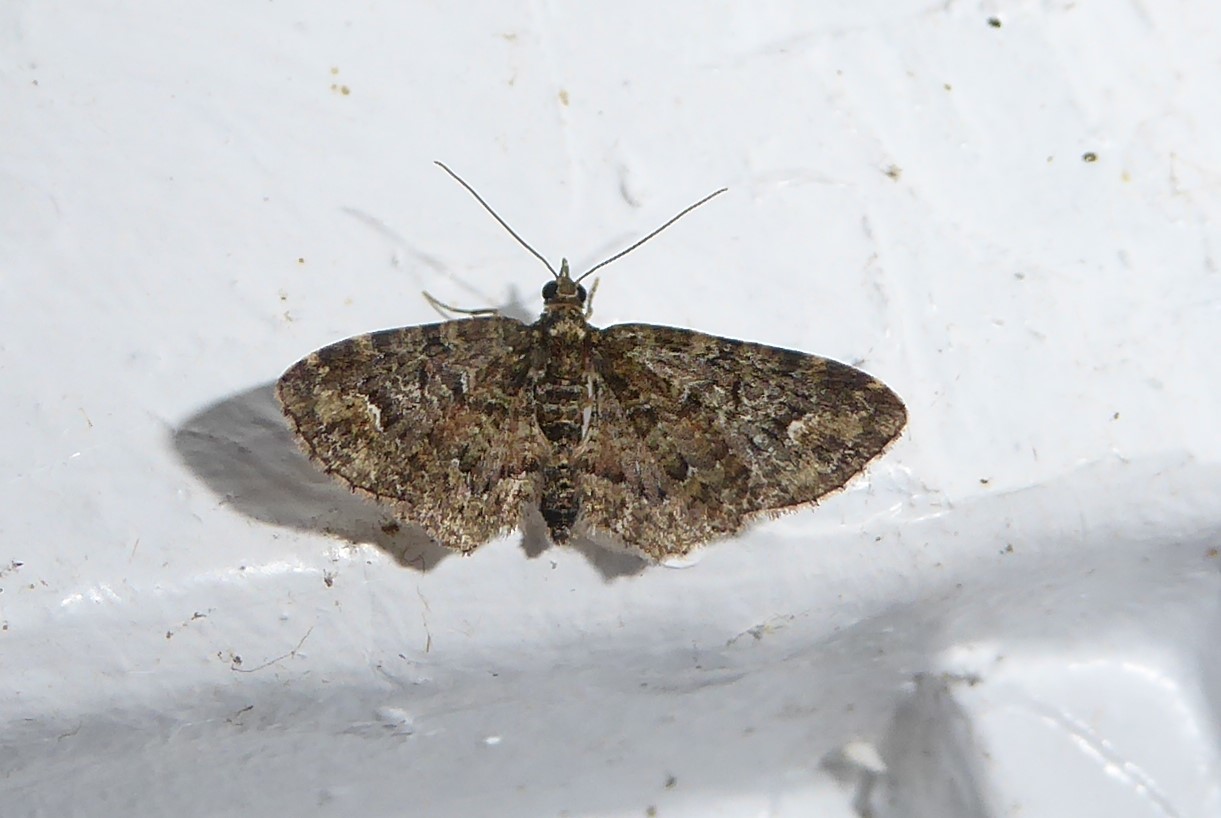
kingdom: Animalia
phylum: Arthropoda
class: Insecta
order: Lepidoptera
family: Geometridae
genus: Pasiphilodes
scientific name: Pasiphilodes testulata
